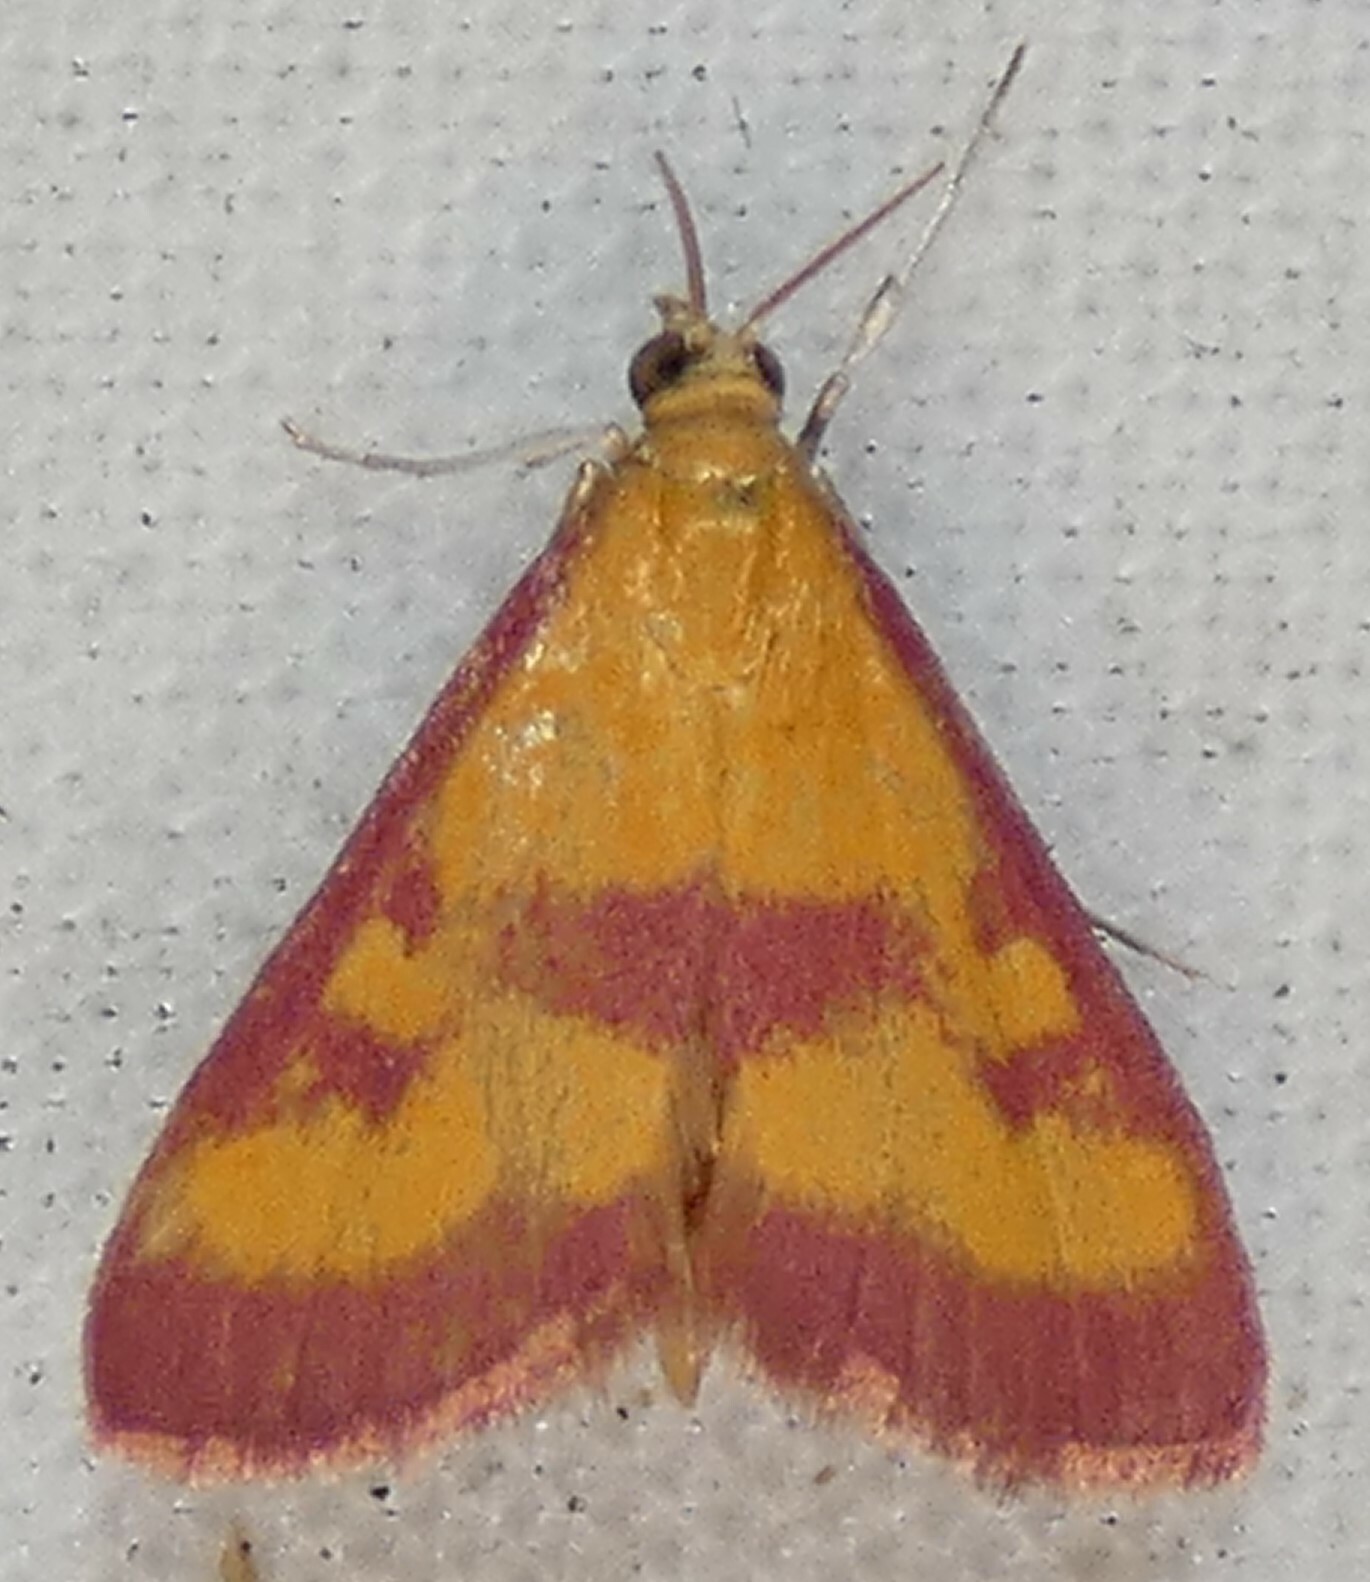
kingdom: Animalia
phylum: Arthropoda
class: Insecta
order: Lepidoptera
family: Crambidae
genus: Pyrausta
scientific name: Pyrausta laticlavia
